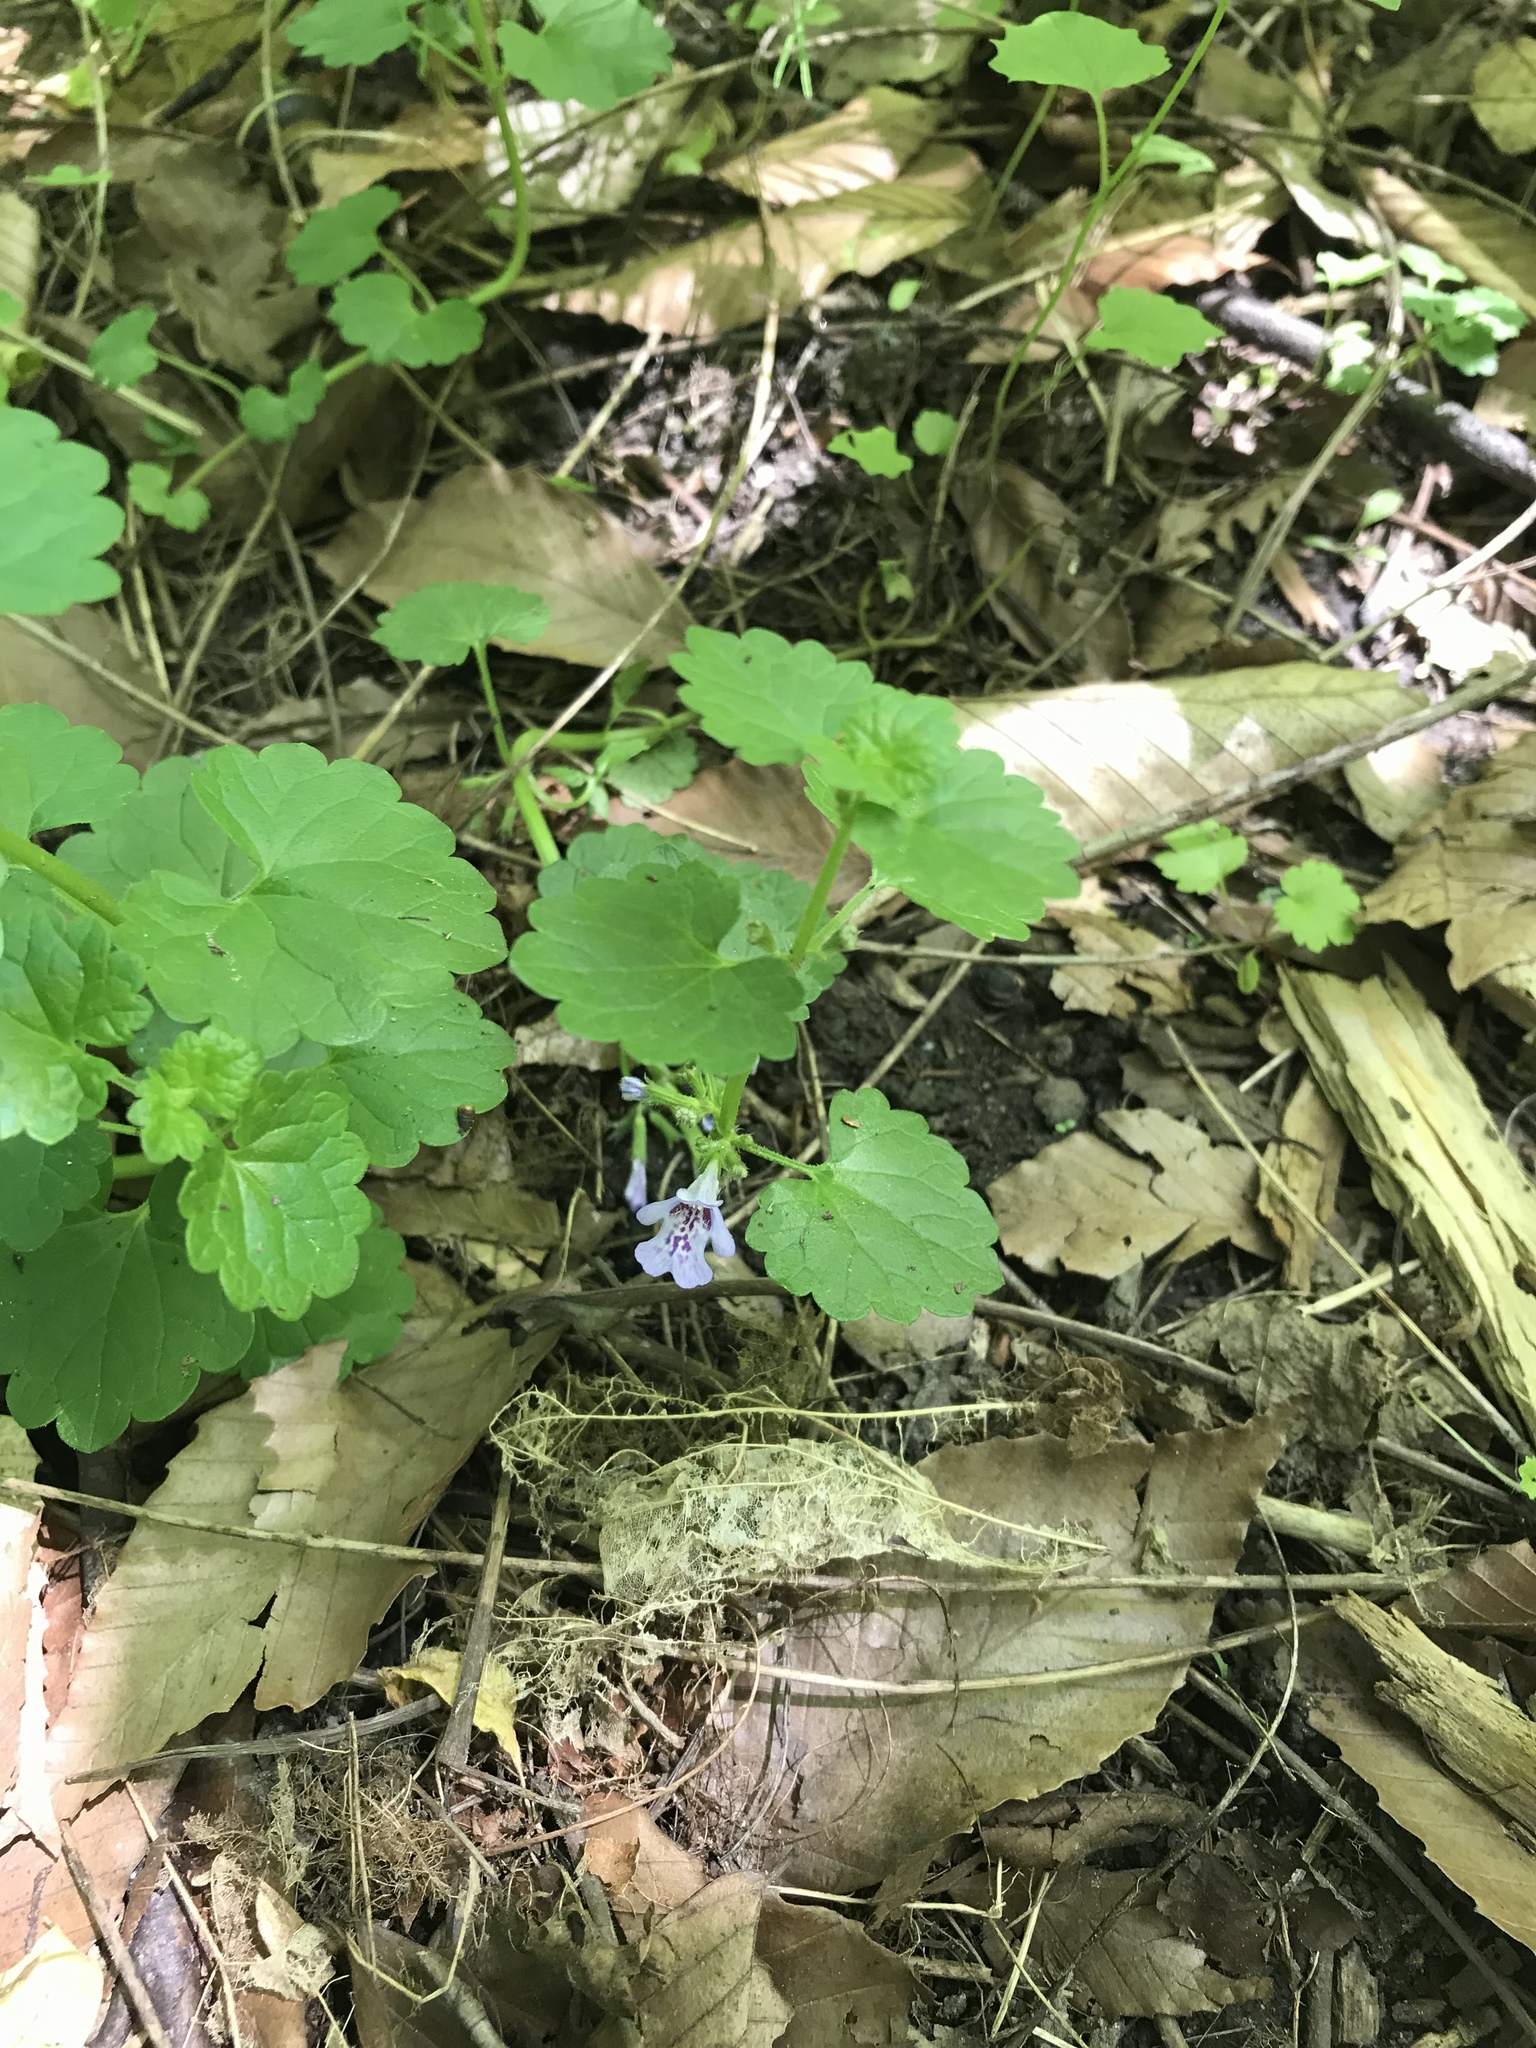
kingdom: Plantae
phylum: Tracheophyta
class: Magnoliopsida
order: Lamiales
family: Lamiaceae
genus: Glechoma
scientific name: Glechoma hederacea
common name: Ground ivy
